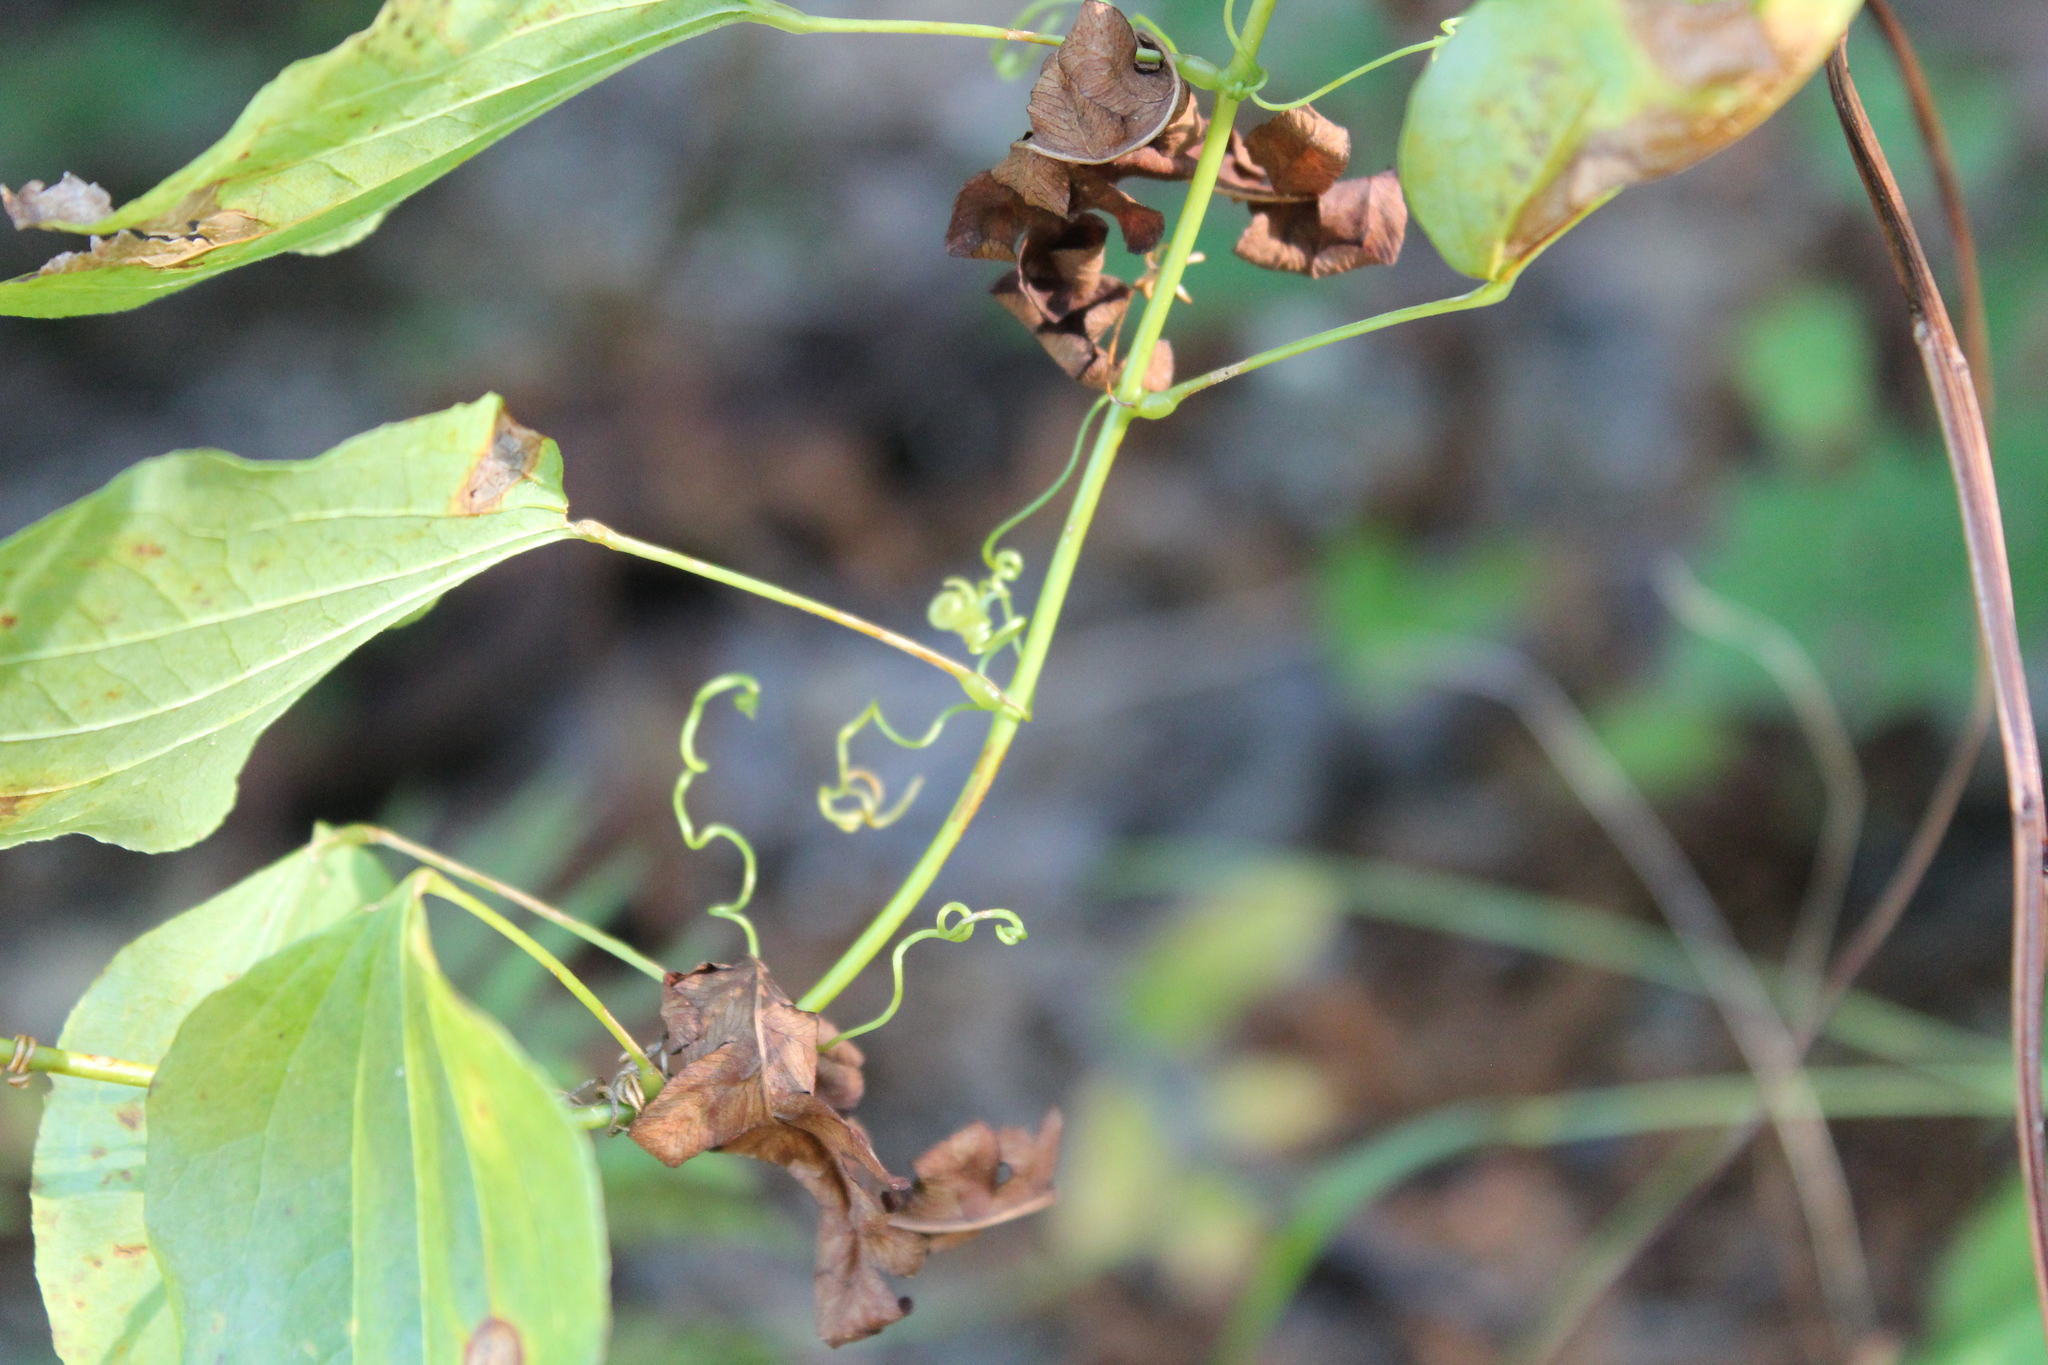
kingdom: Plantae
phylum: Tracheophyta
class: Liliopsida
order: Liliales
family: Smilacaceae
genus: Smilax
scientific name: Smilax herbacea
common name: Jacob's-ladder
